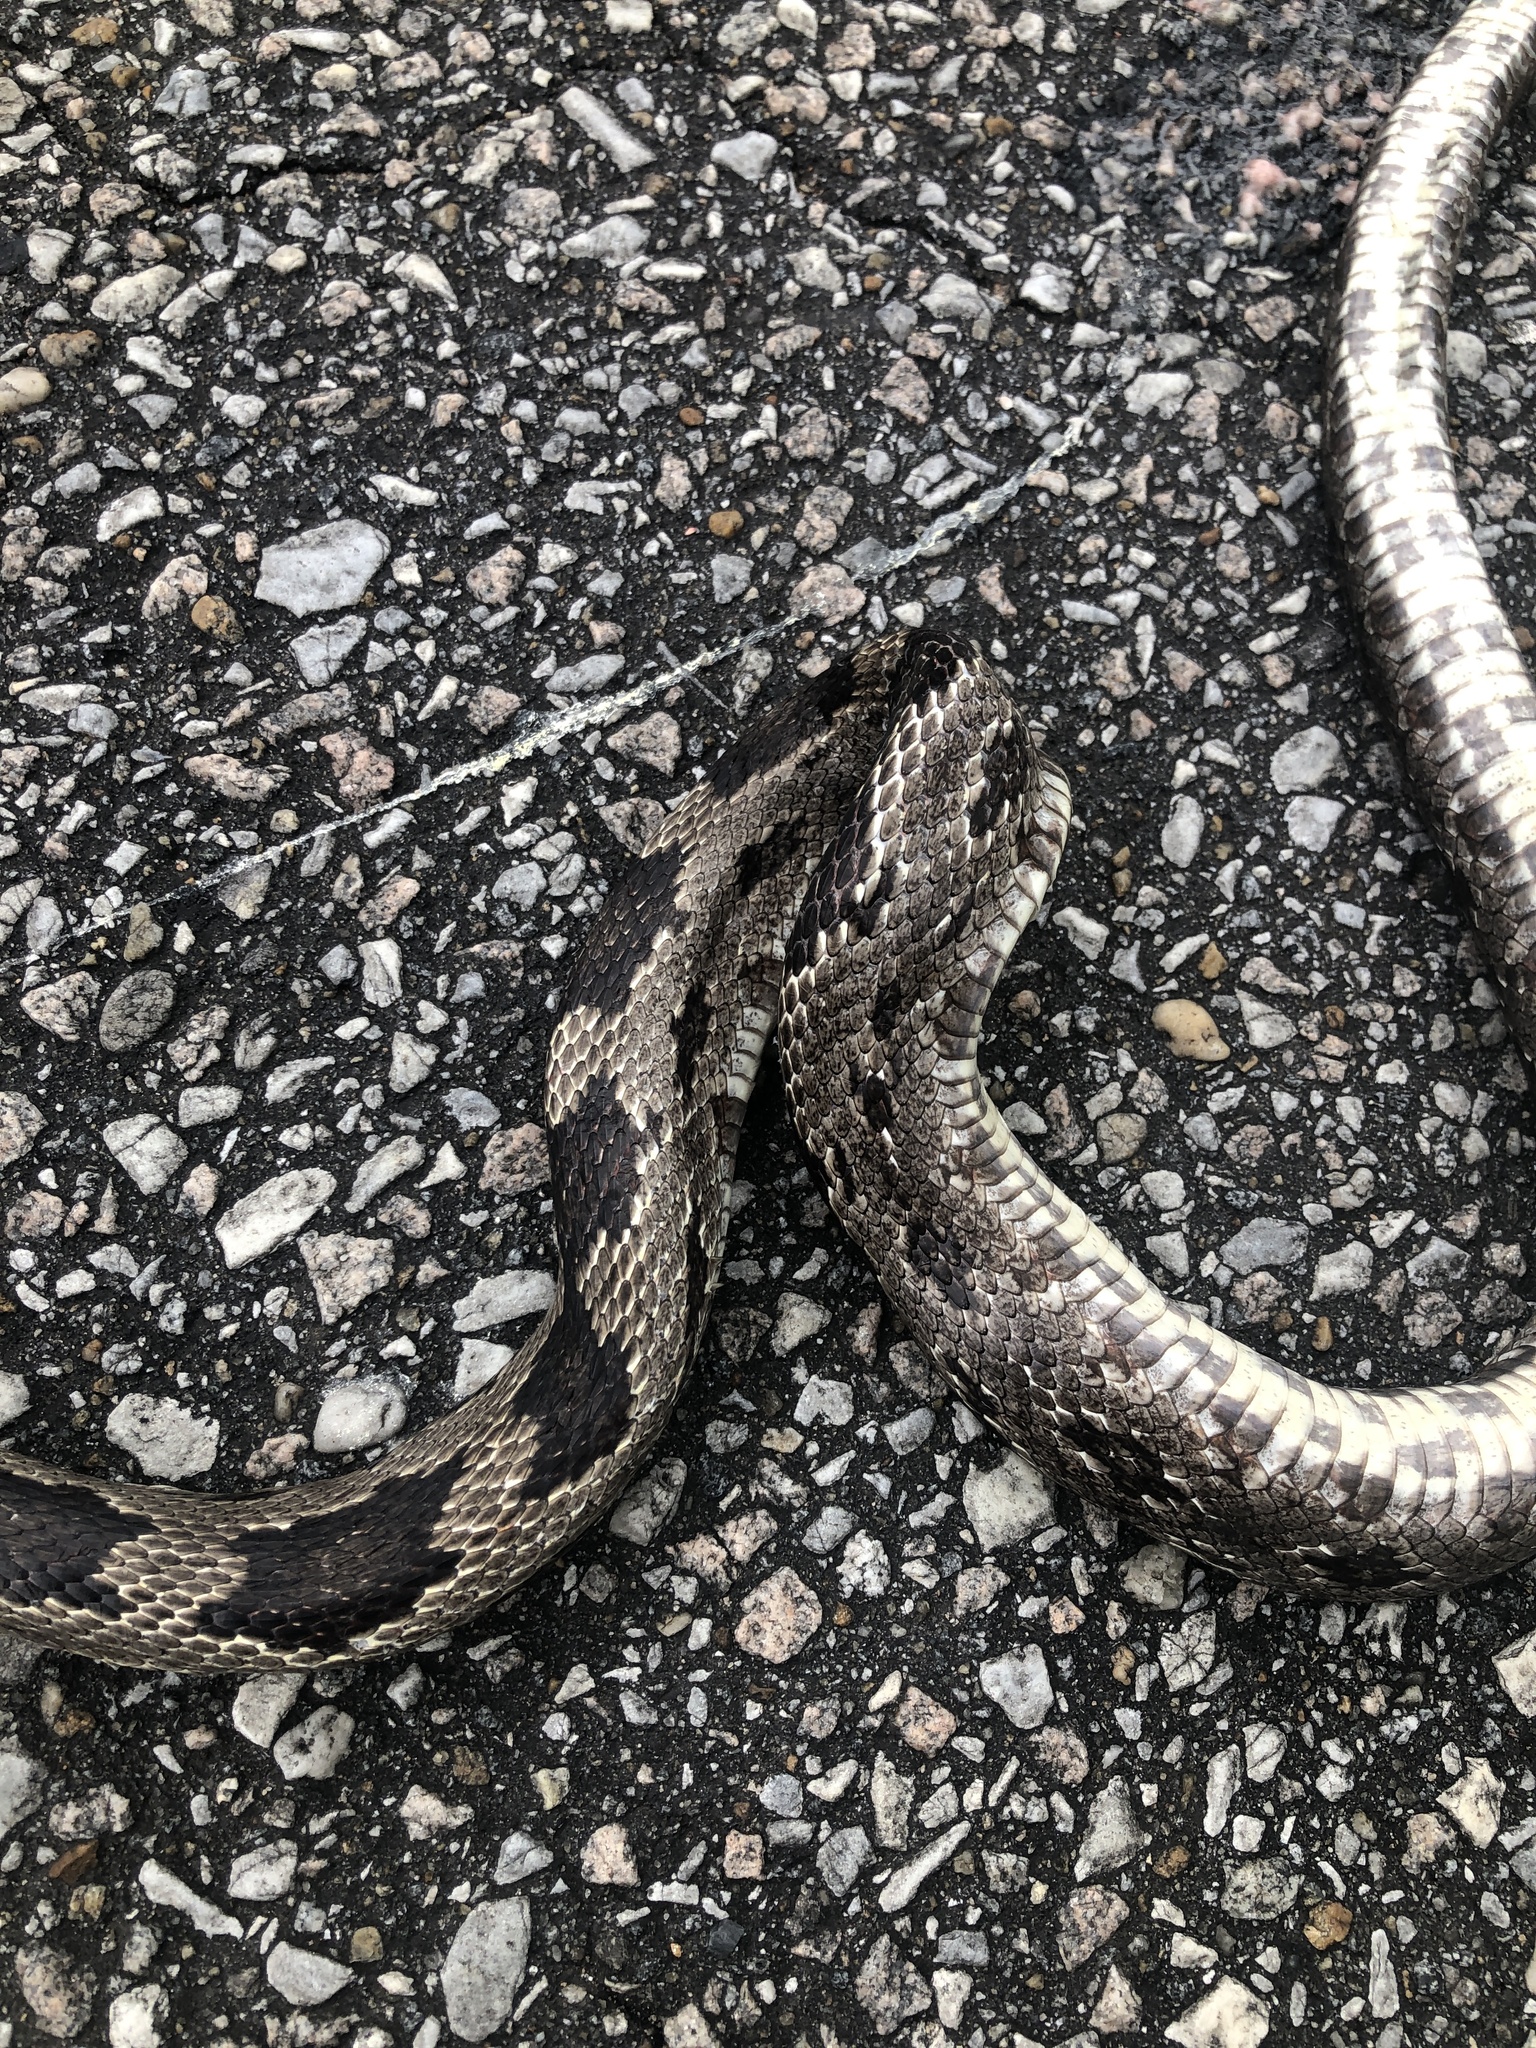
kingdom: Animalia
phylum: Chordata
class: Squamata
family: Colubridae
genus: Pantherophis
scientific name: Pantherophis spiloides
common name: Gray rat snake
